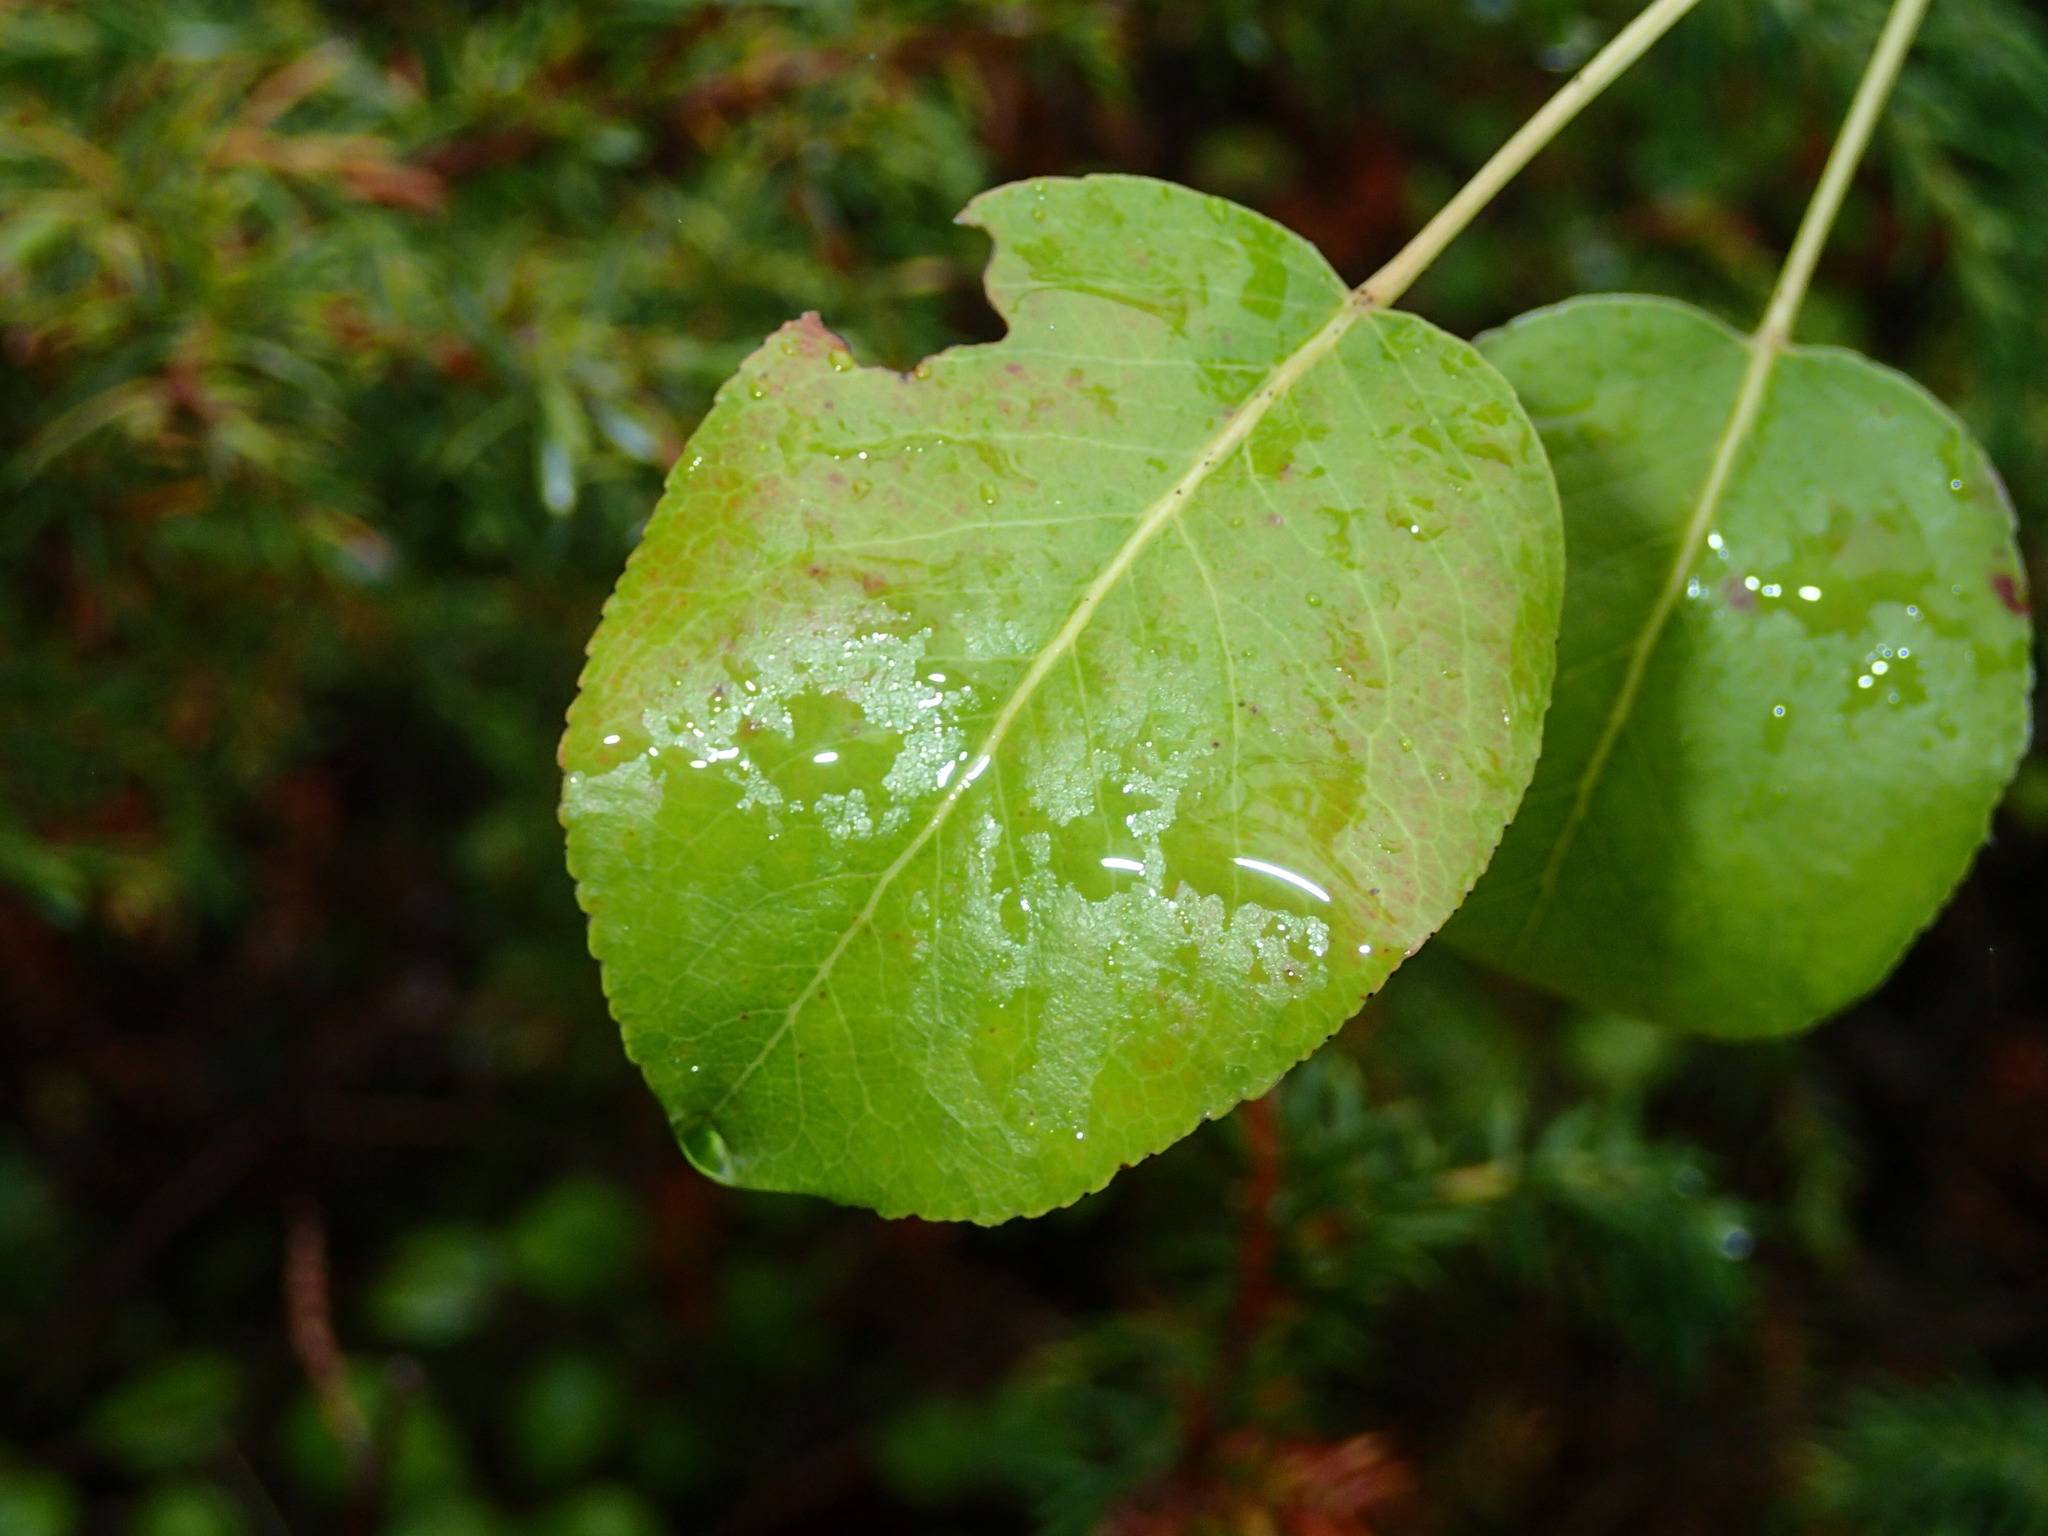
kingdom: Plantae
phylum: Tracheophyta
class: Magnoliopsida
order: Rosales
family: Rosaceae
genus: Pyrus
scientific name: Pyrus communis
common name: Pear
